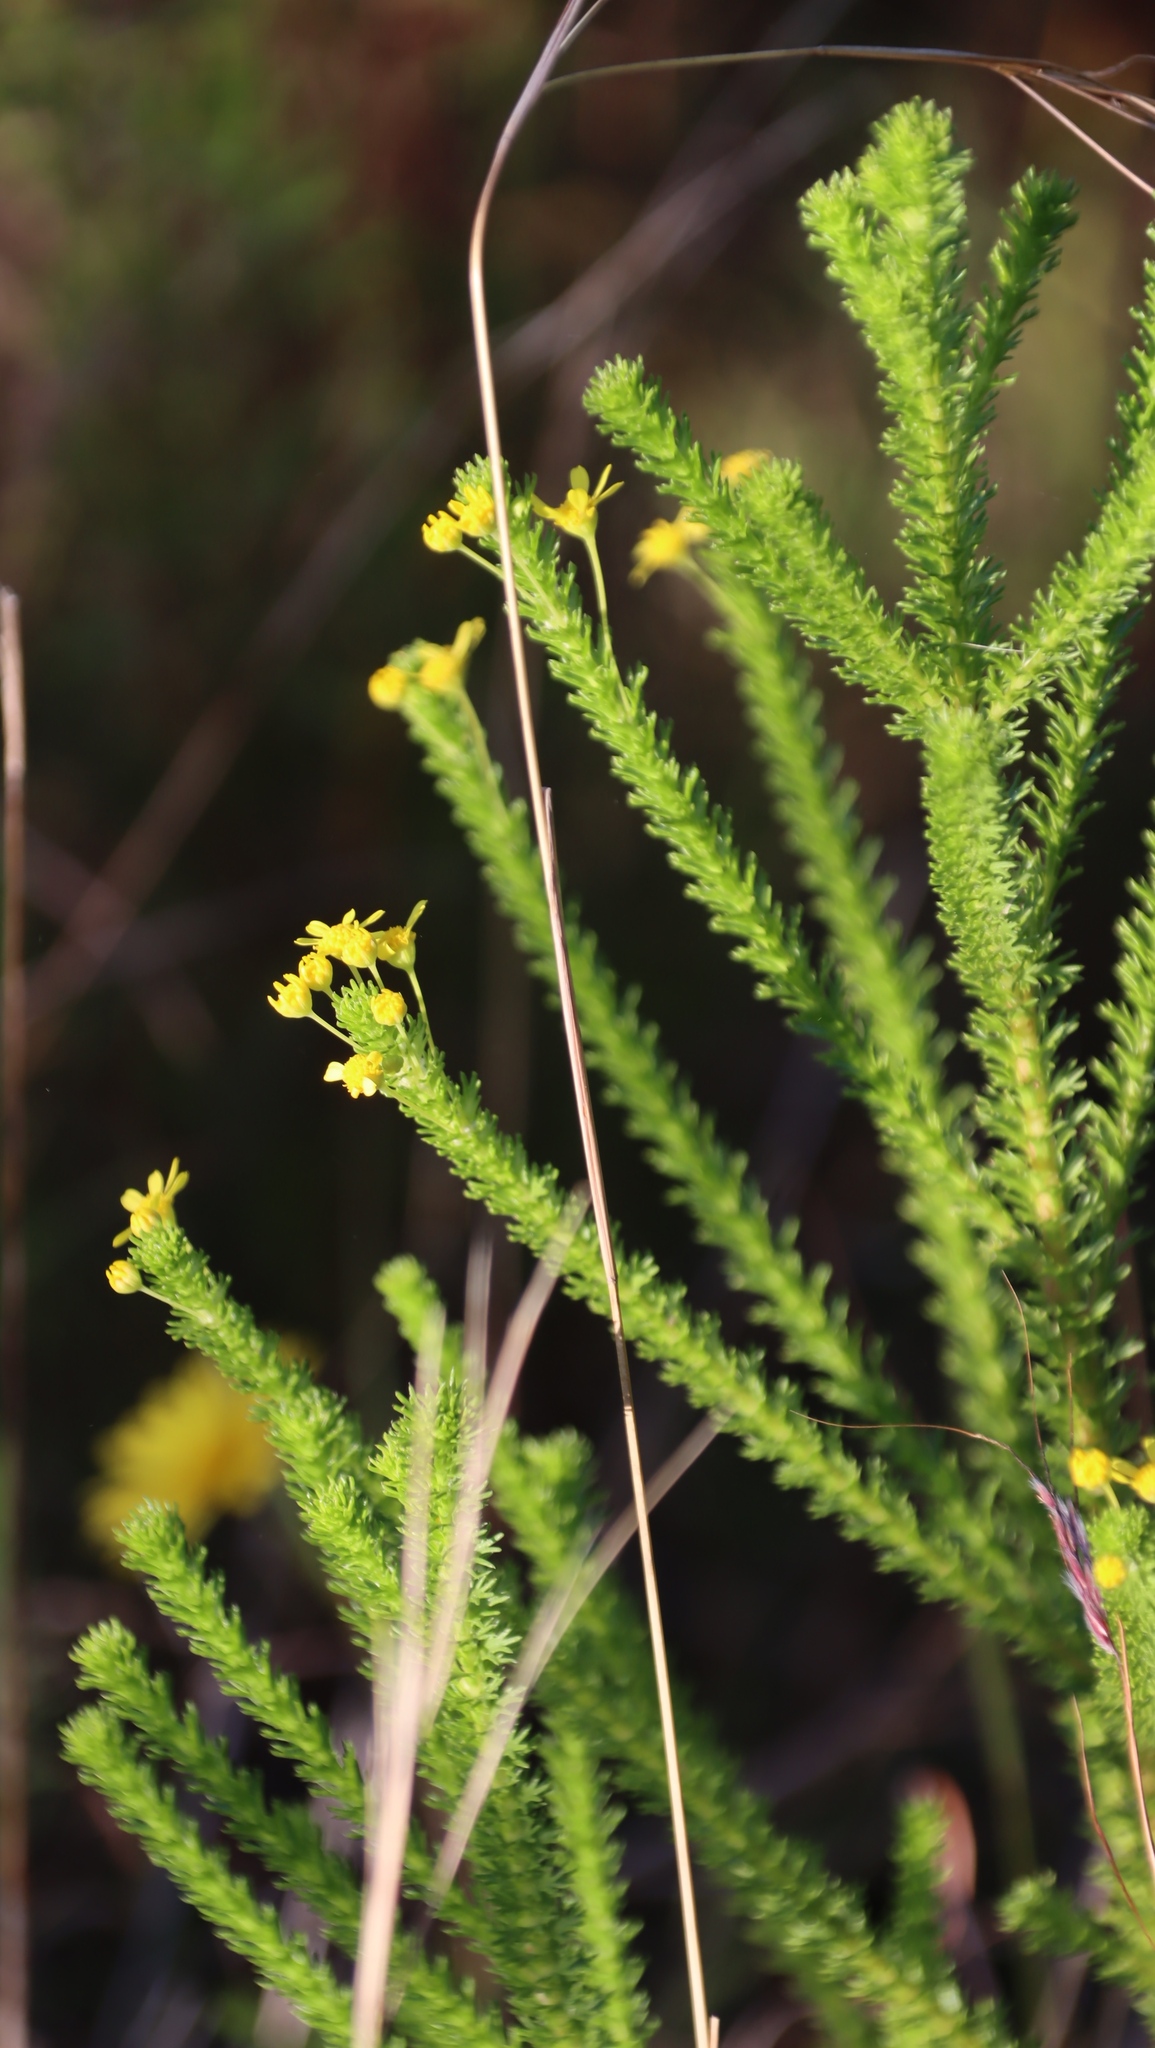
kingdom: Plantae
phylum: Tracheophyta
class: Magnoliopsida
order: Asterales
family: Asteraceae
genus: Euryops
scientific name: Euryops virgineus
